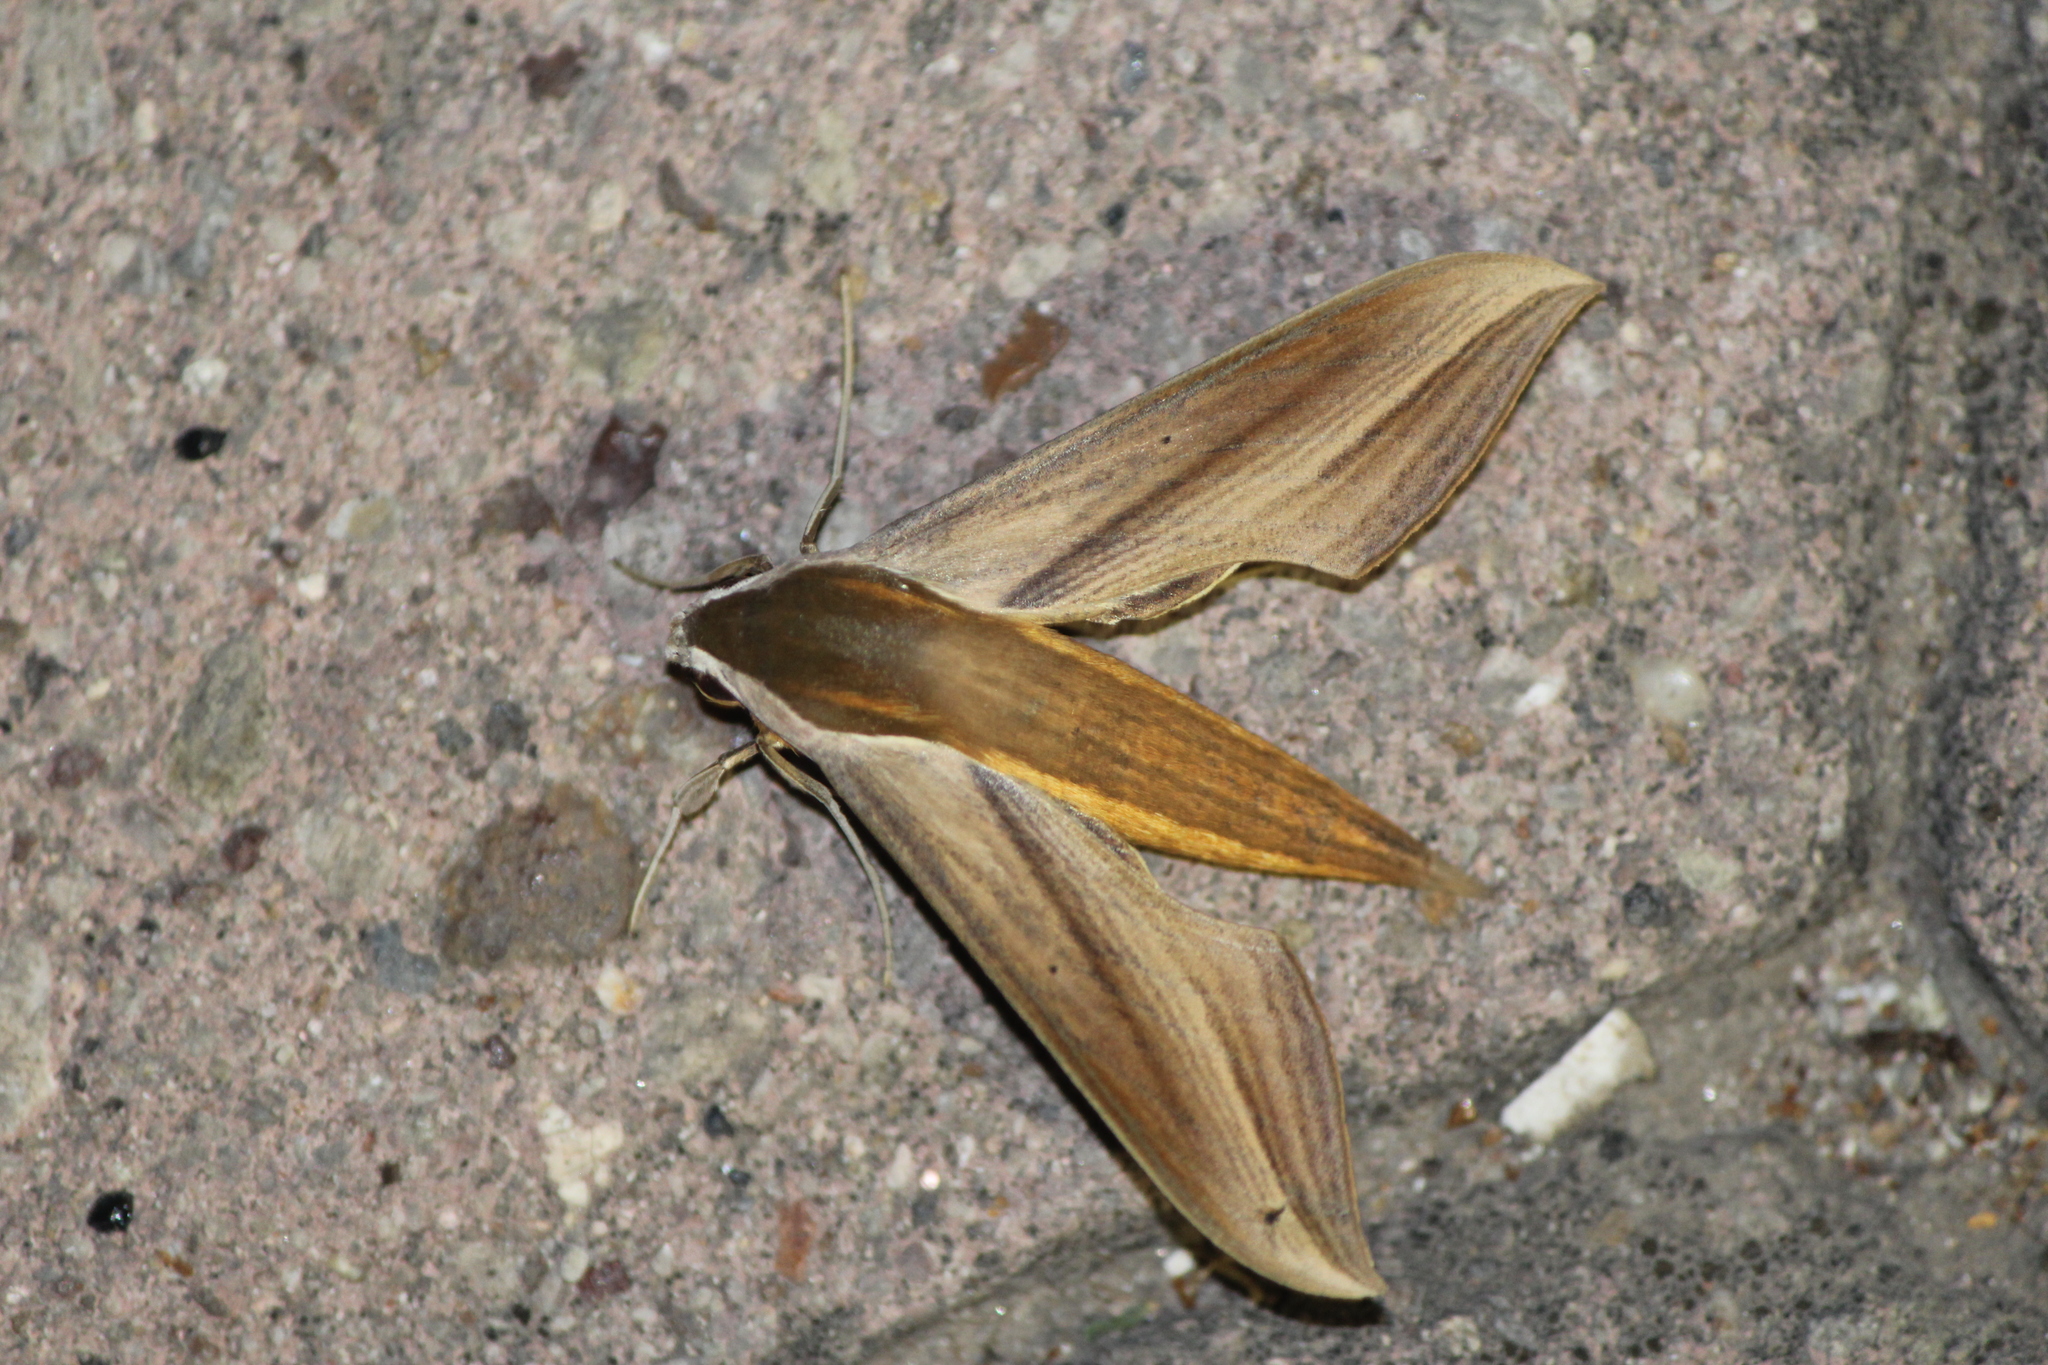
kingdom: Animalia
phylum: Arthropoda
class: Insecta
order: Lepidoptera
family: Sphingidae
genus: Xylophanes
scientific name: Xylophanes tersa
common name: Tersa sphinx
